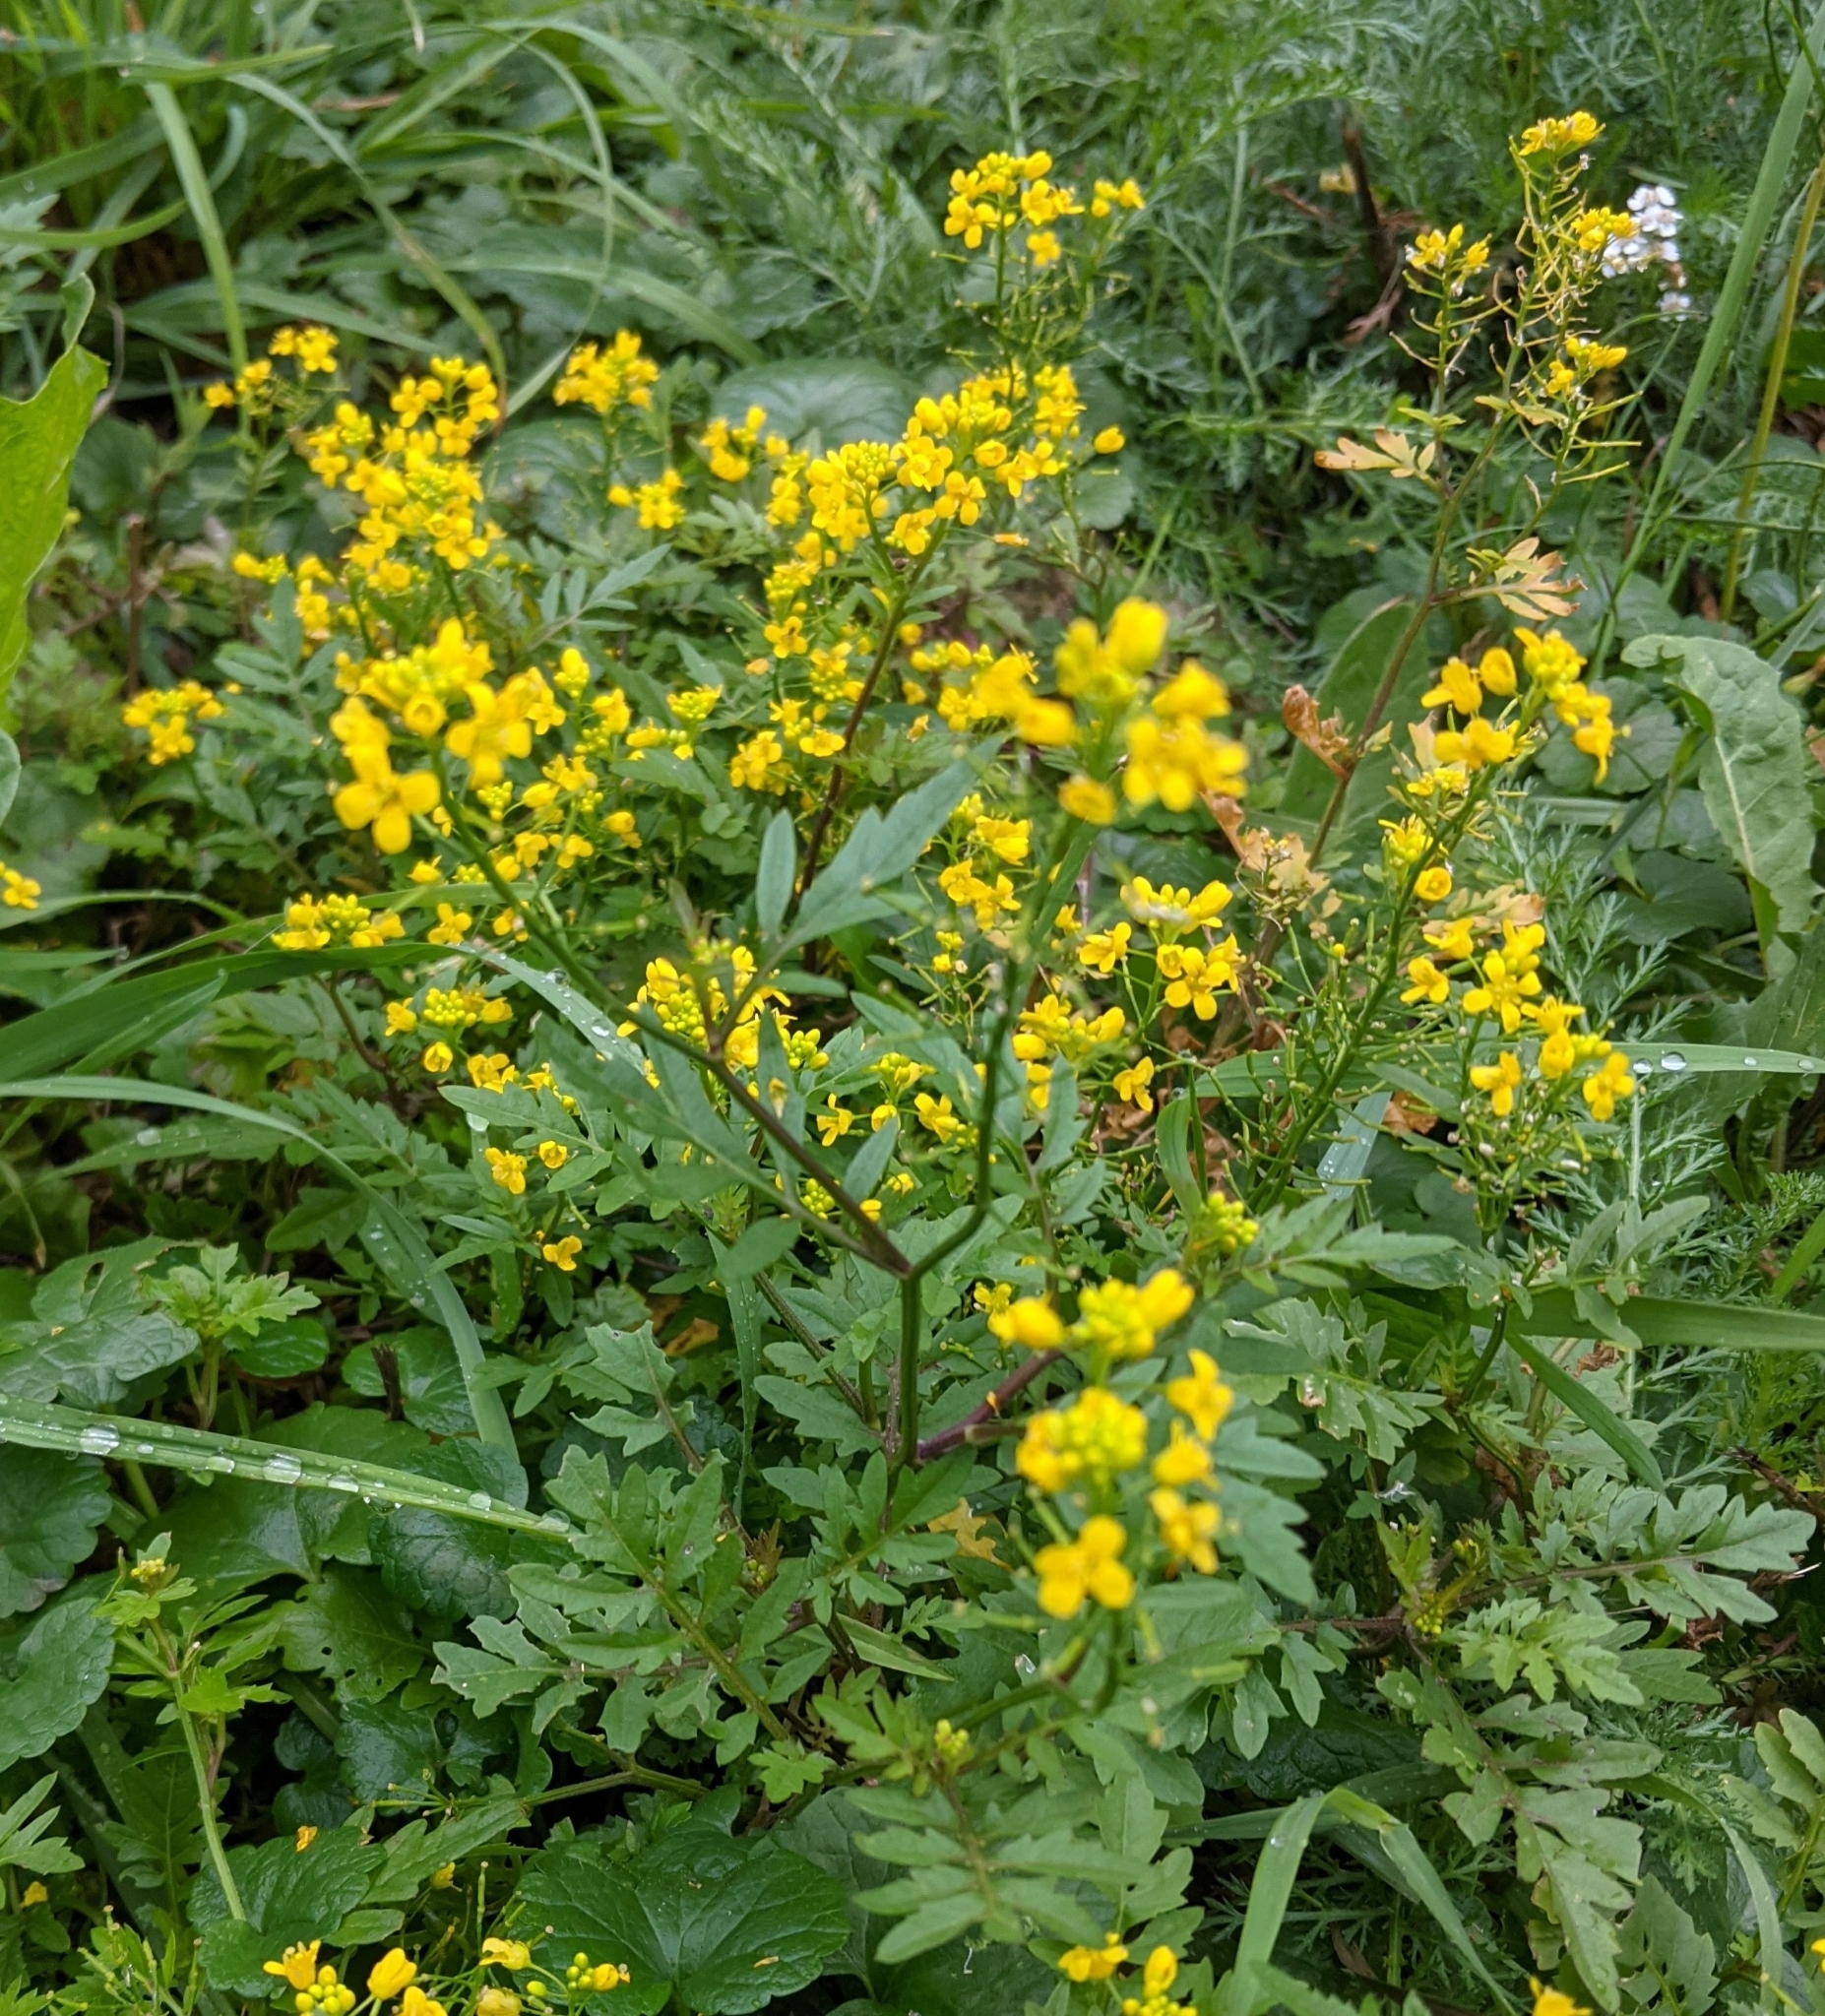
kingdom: Plantae
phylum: Tracheophyta
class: Magnoliopsida
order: Brassicales
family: Brassicaceae
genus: Rorippa
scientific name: Rorippa sylvestris
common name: Creeping yellowcress
